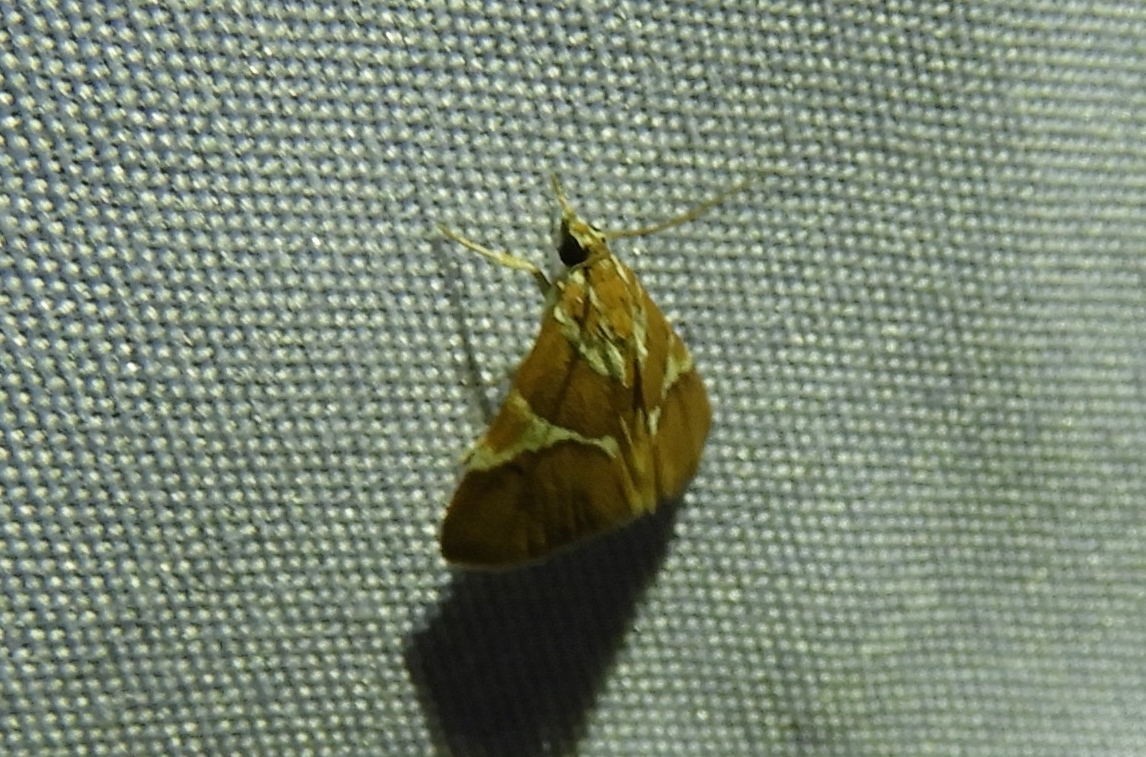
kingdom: Animalia
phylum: Arthropoda
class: Insecta
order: Lepidoptera
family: Crambidae
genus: Jativa
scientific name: Jativa castanealis
